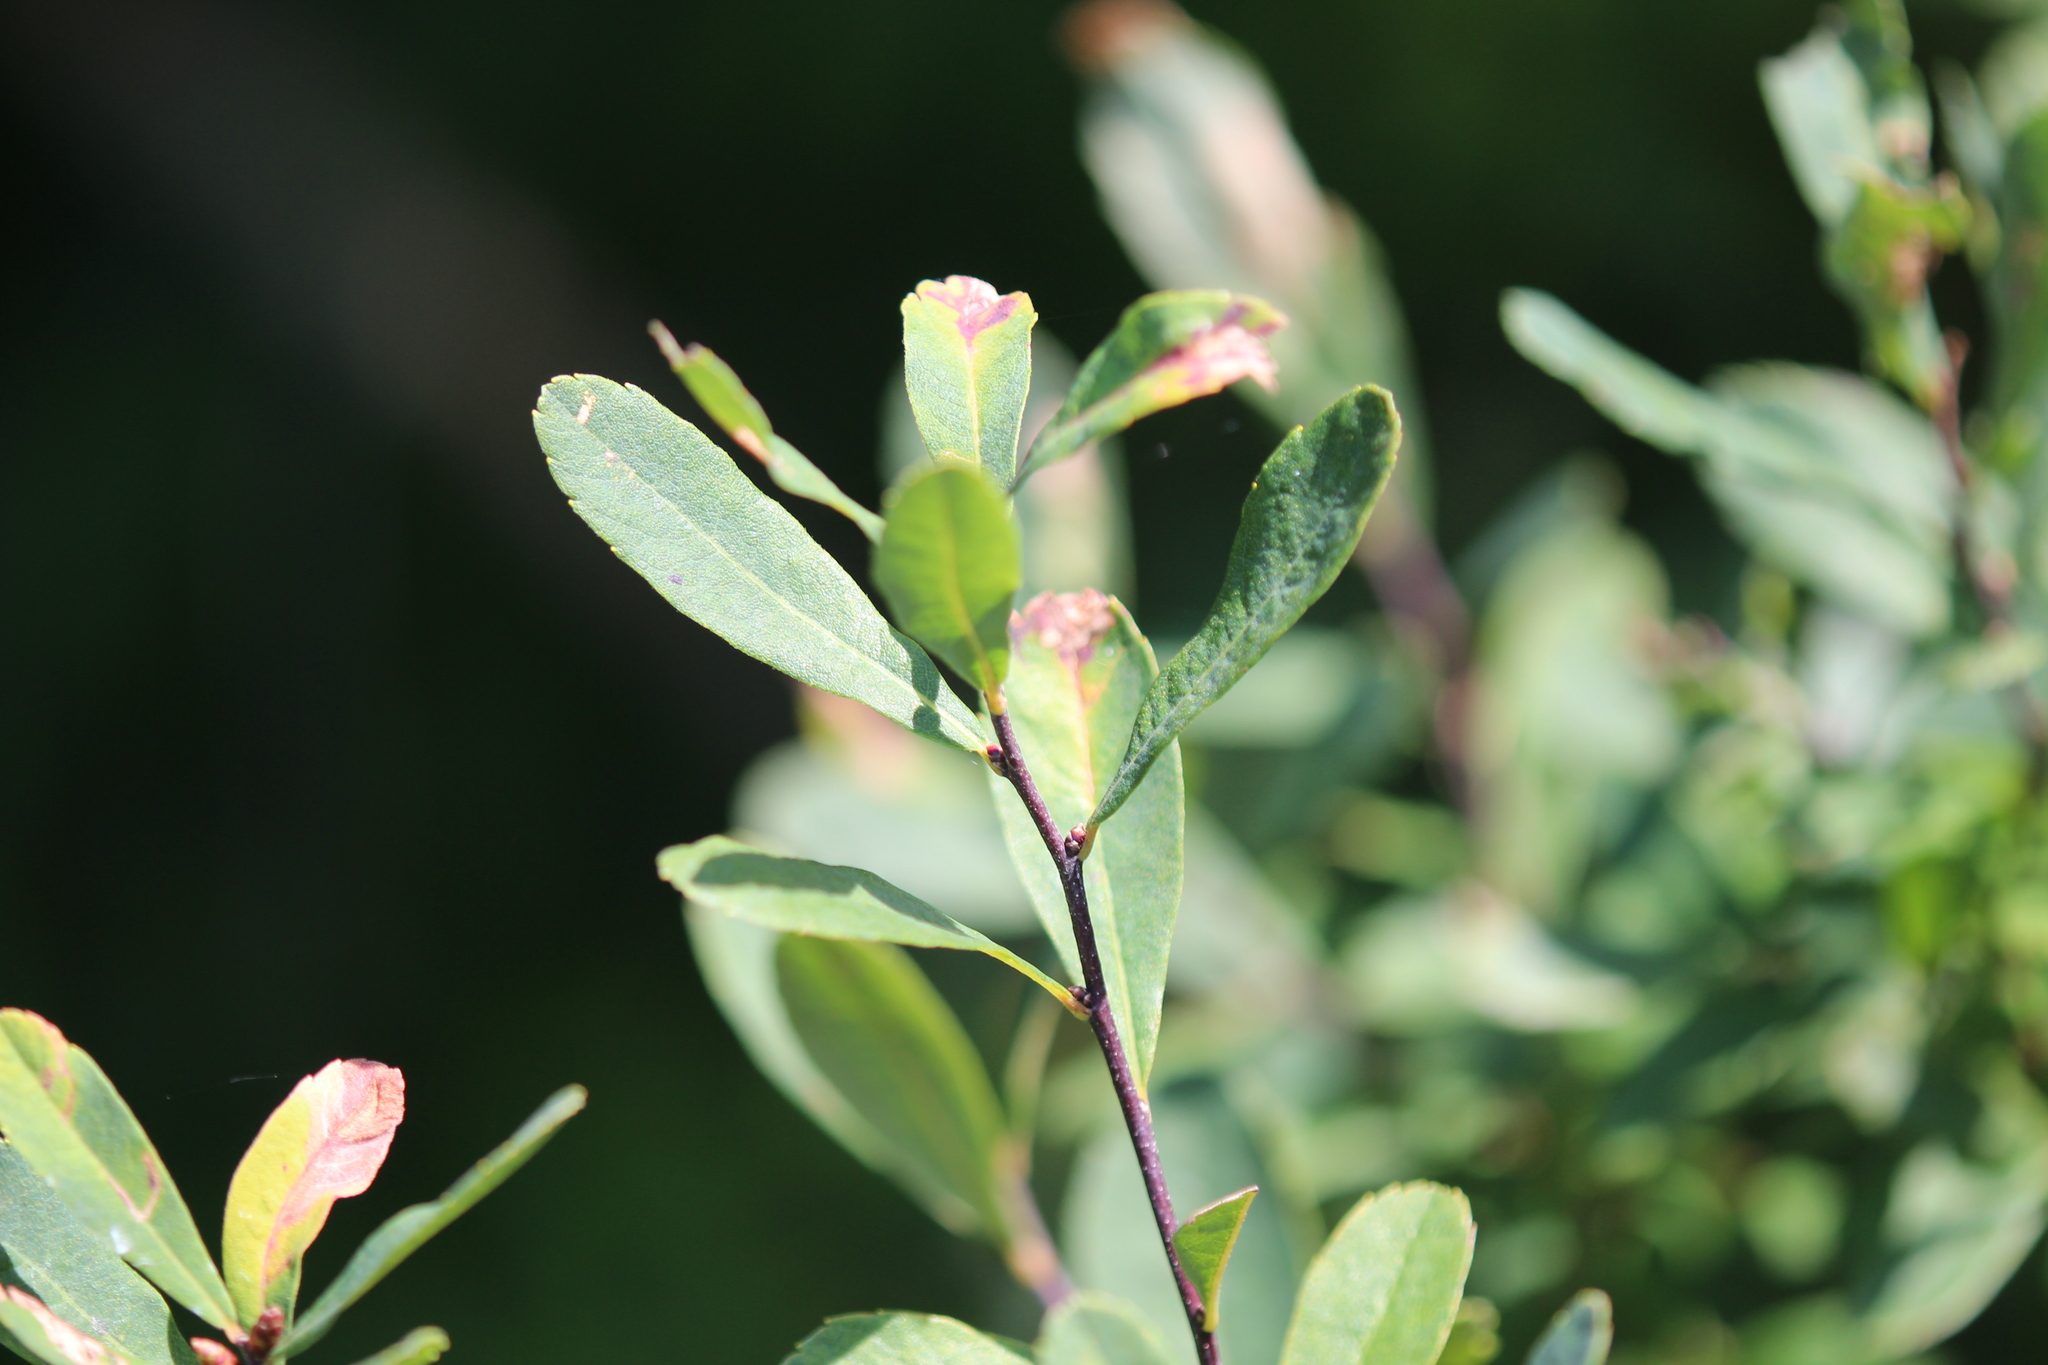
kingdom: Plantae
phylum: Tracheophyta
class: Magnoliopsida
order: Fagales
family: Myricaceae
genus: Myrica
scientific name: Myrica gale
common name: Sweet gale
